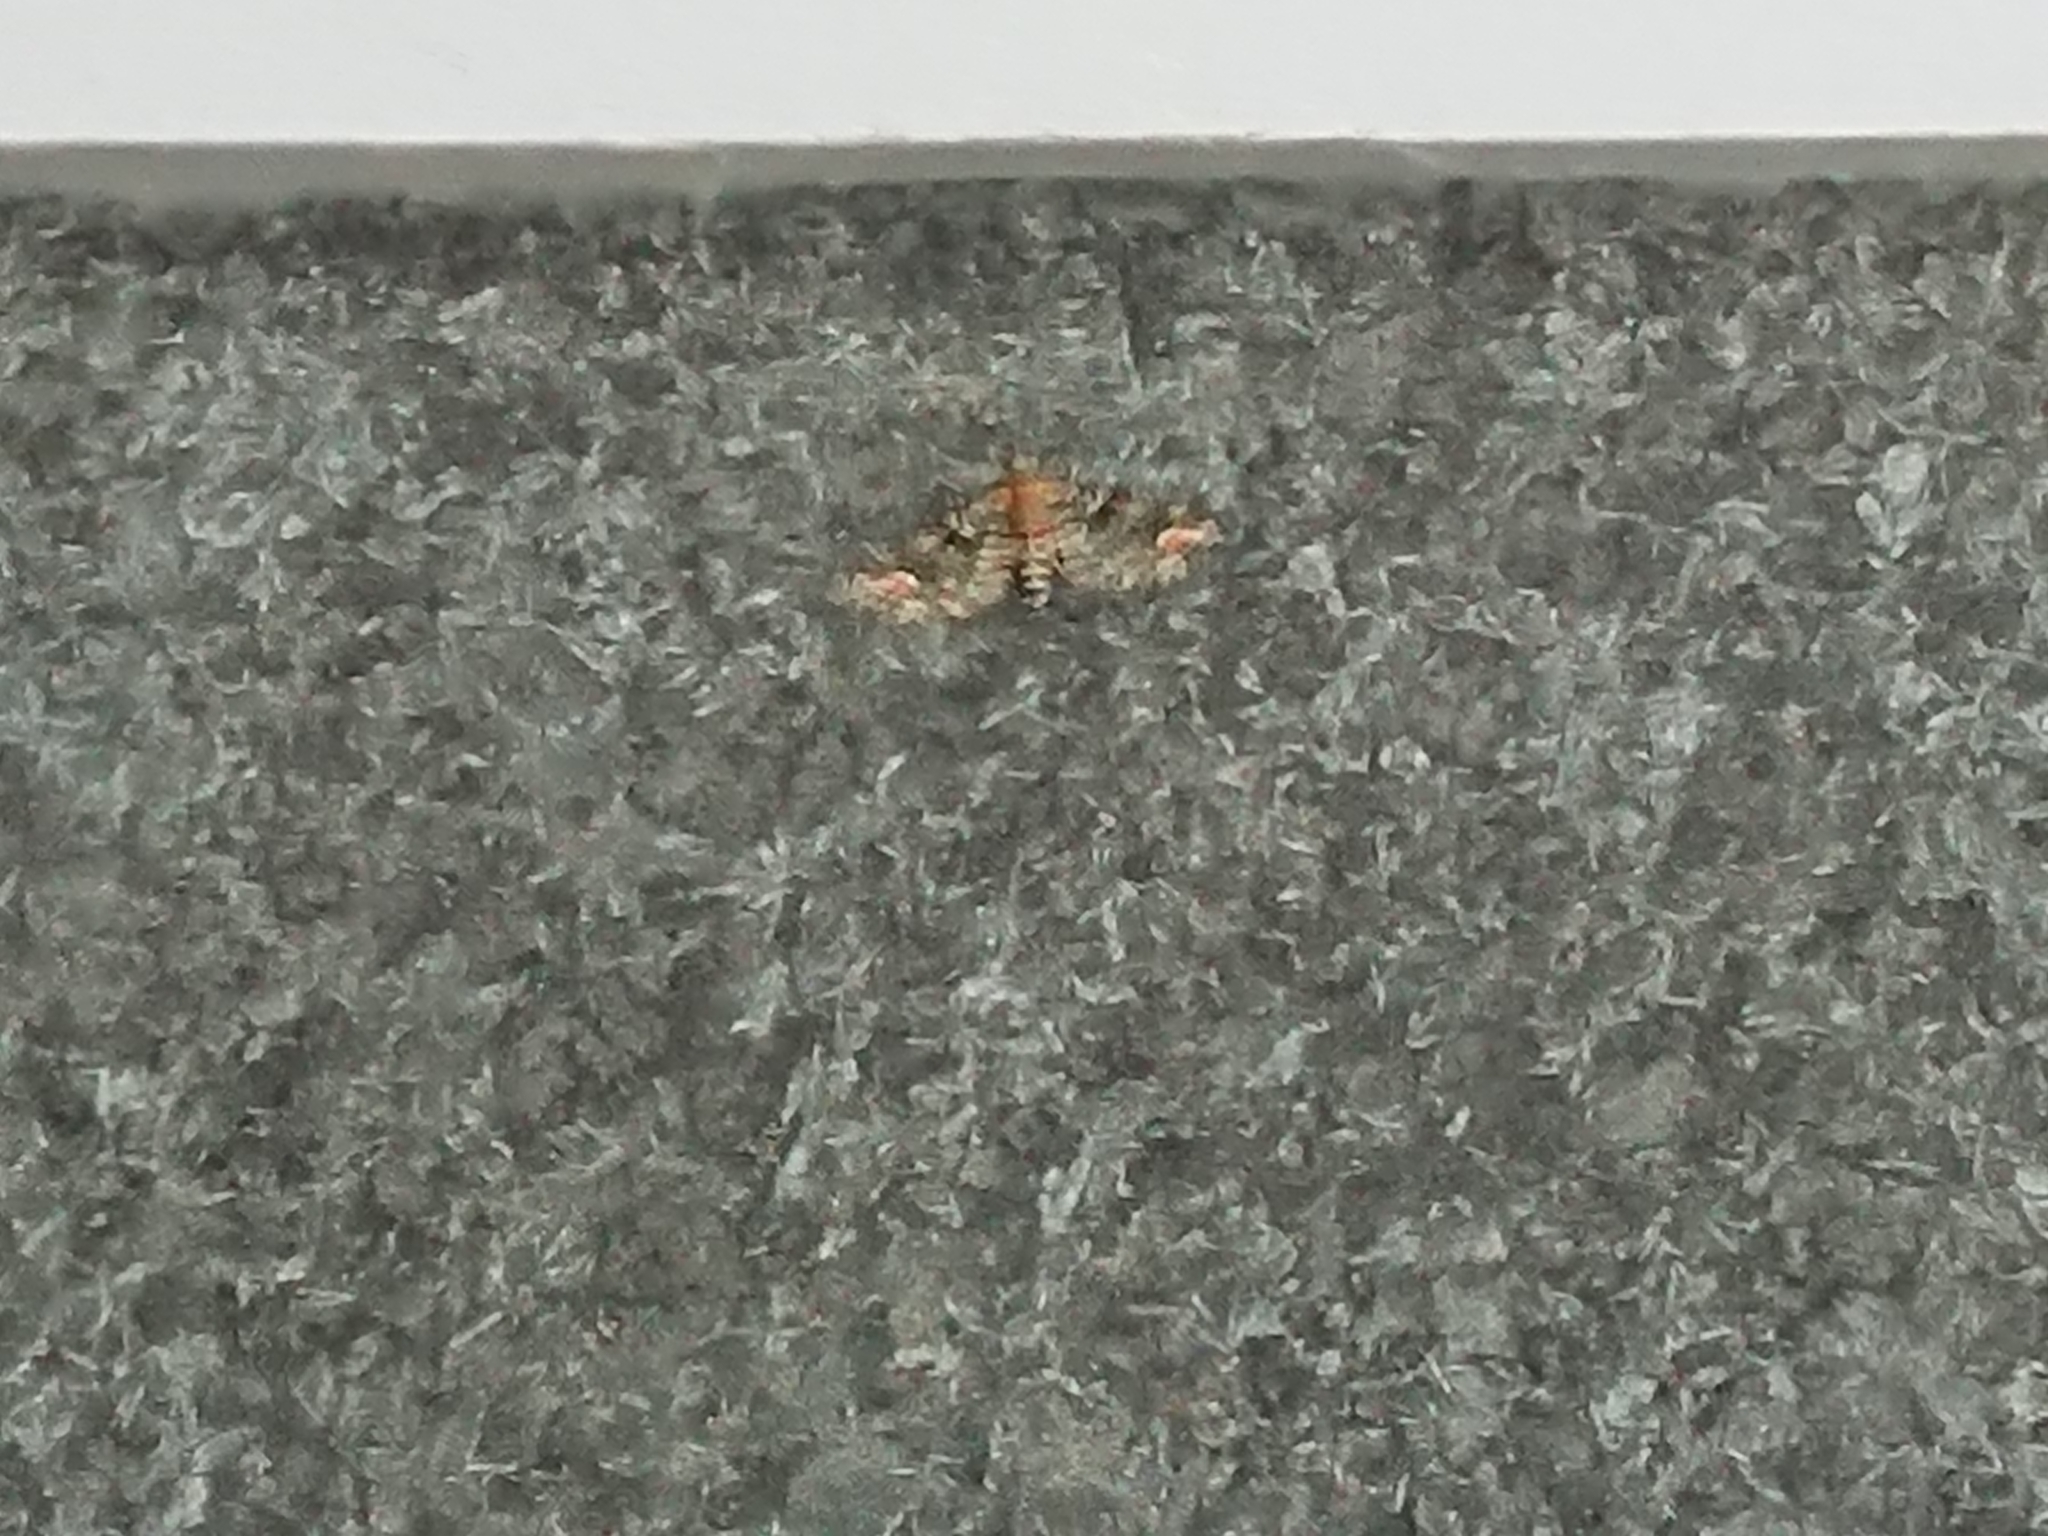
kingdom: Animalia
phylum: Arthropoda
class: Insecta
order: Lepidoptera
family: Geometridae
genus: Idaea
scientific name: Idaea mutanda
